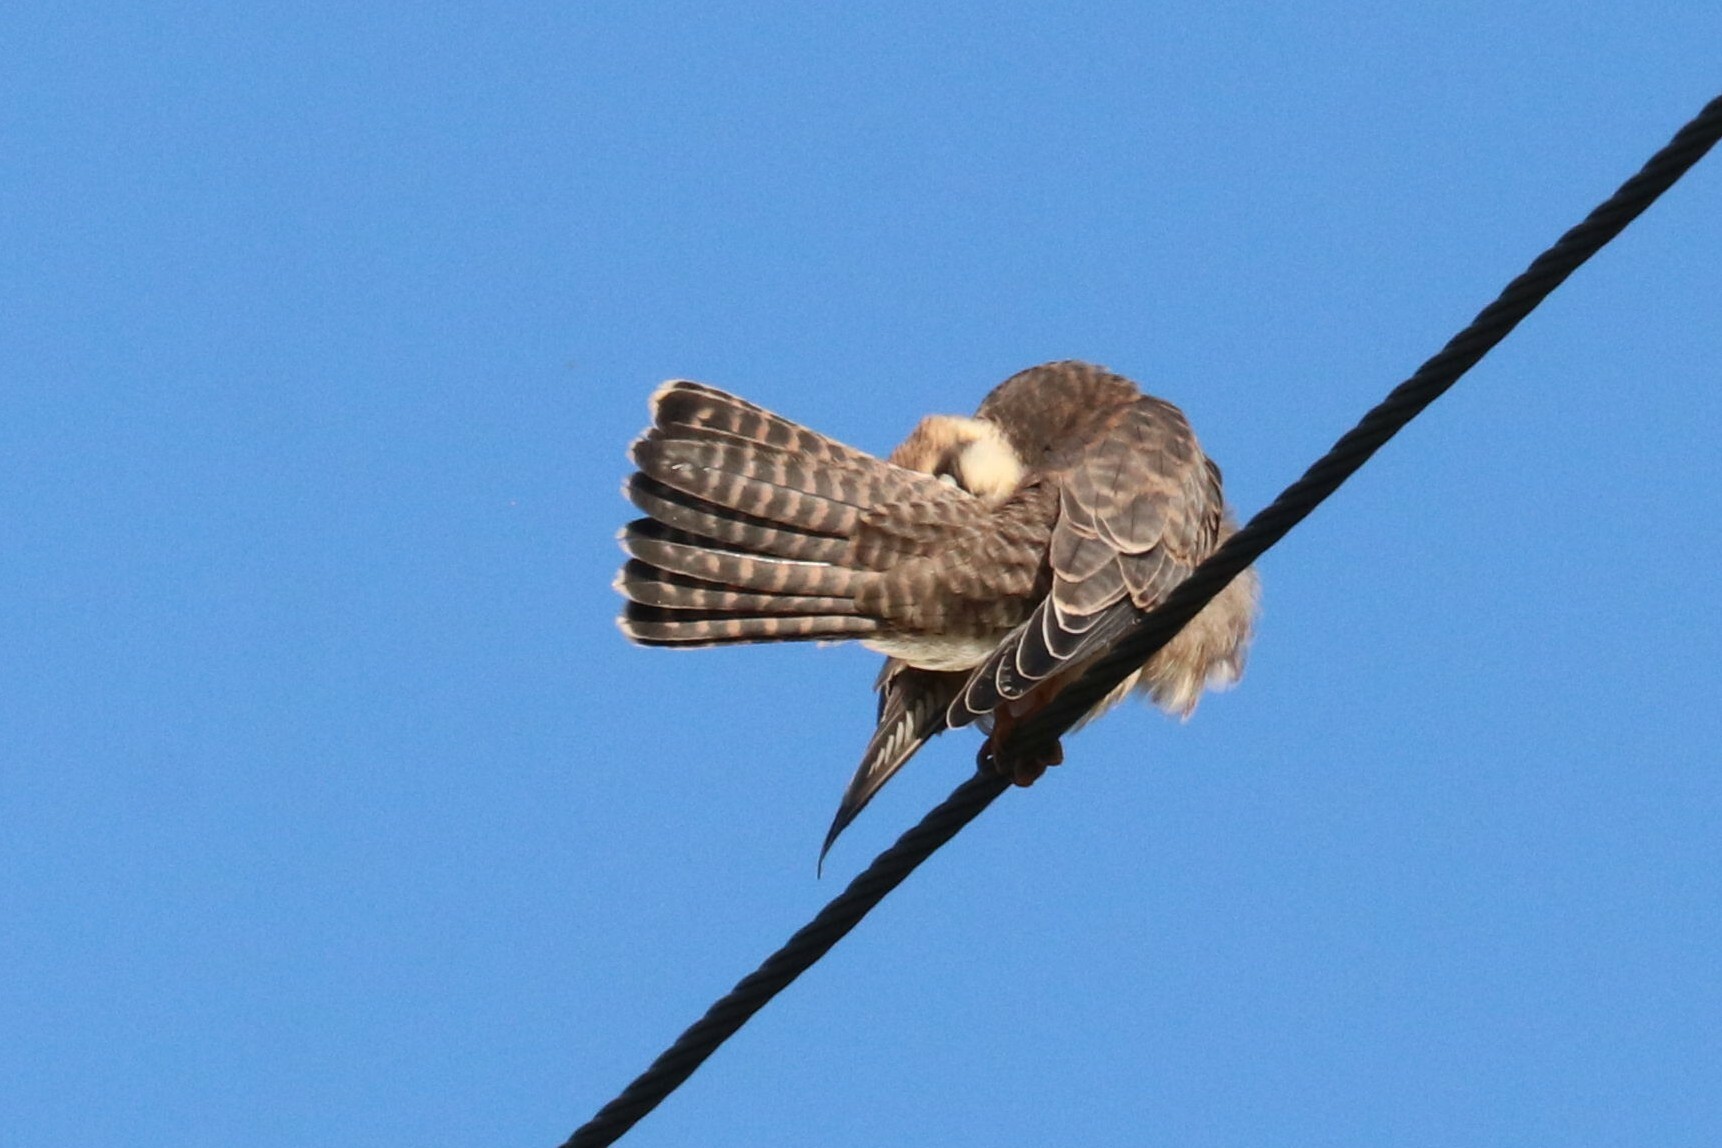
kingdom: Animalia
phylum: Chordata
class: Aves
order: Falconiformes
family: Falconidae
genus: Falco
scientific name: Falco vespertinus
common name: Red-footed falcon
